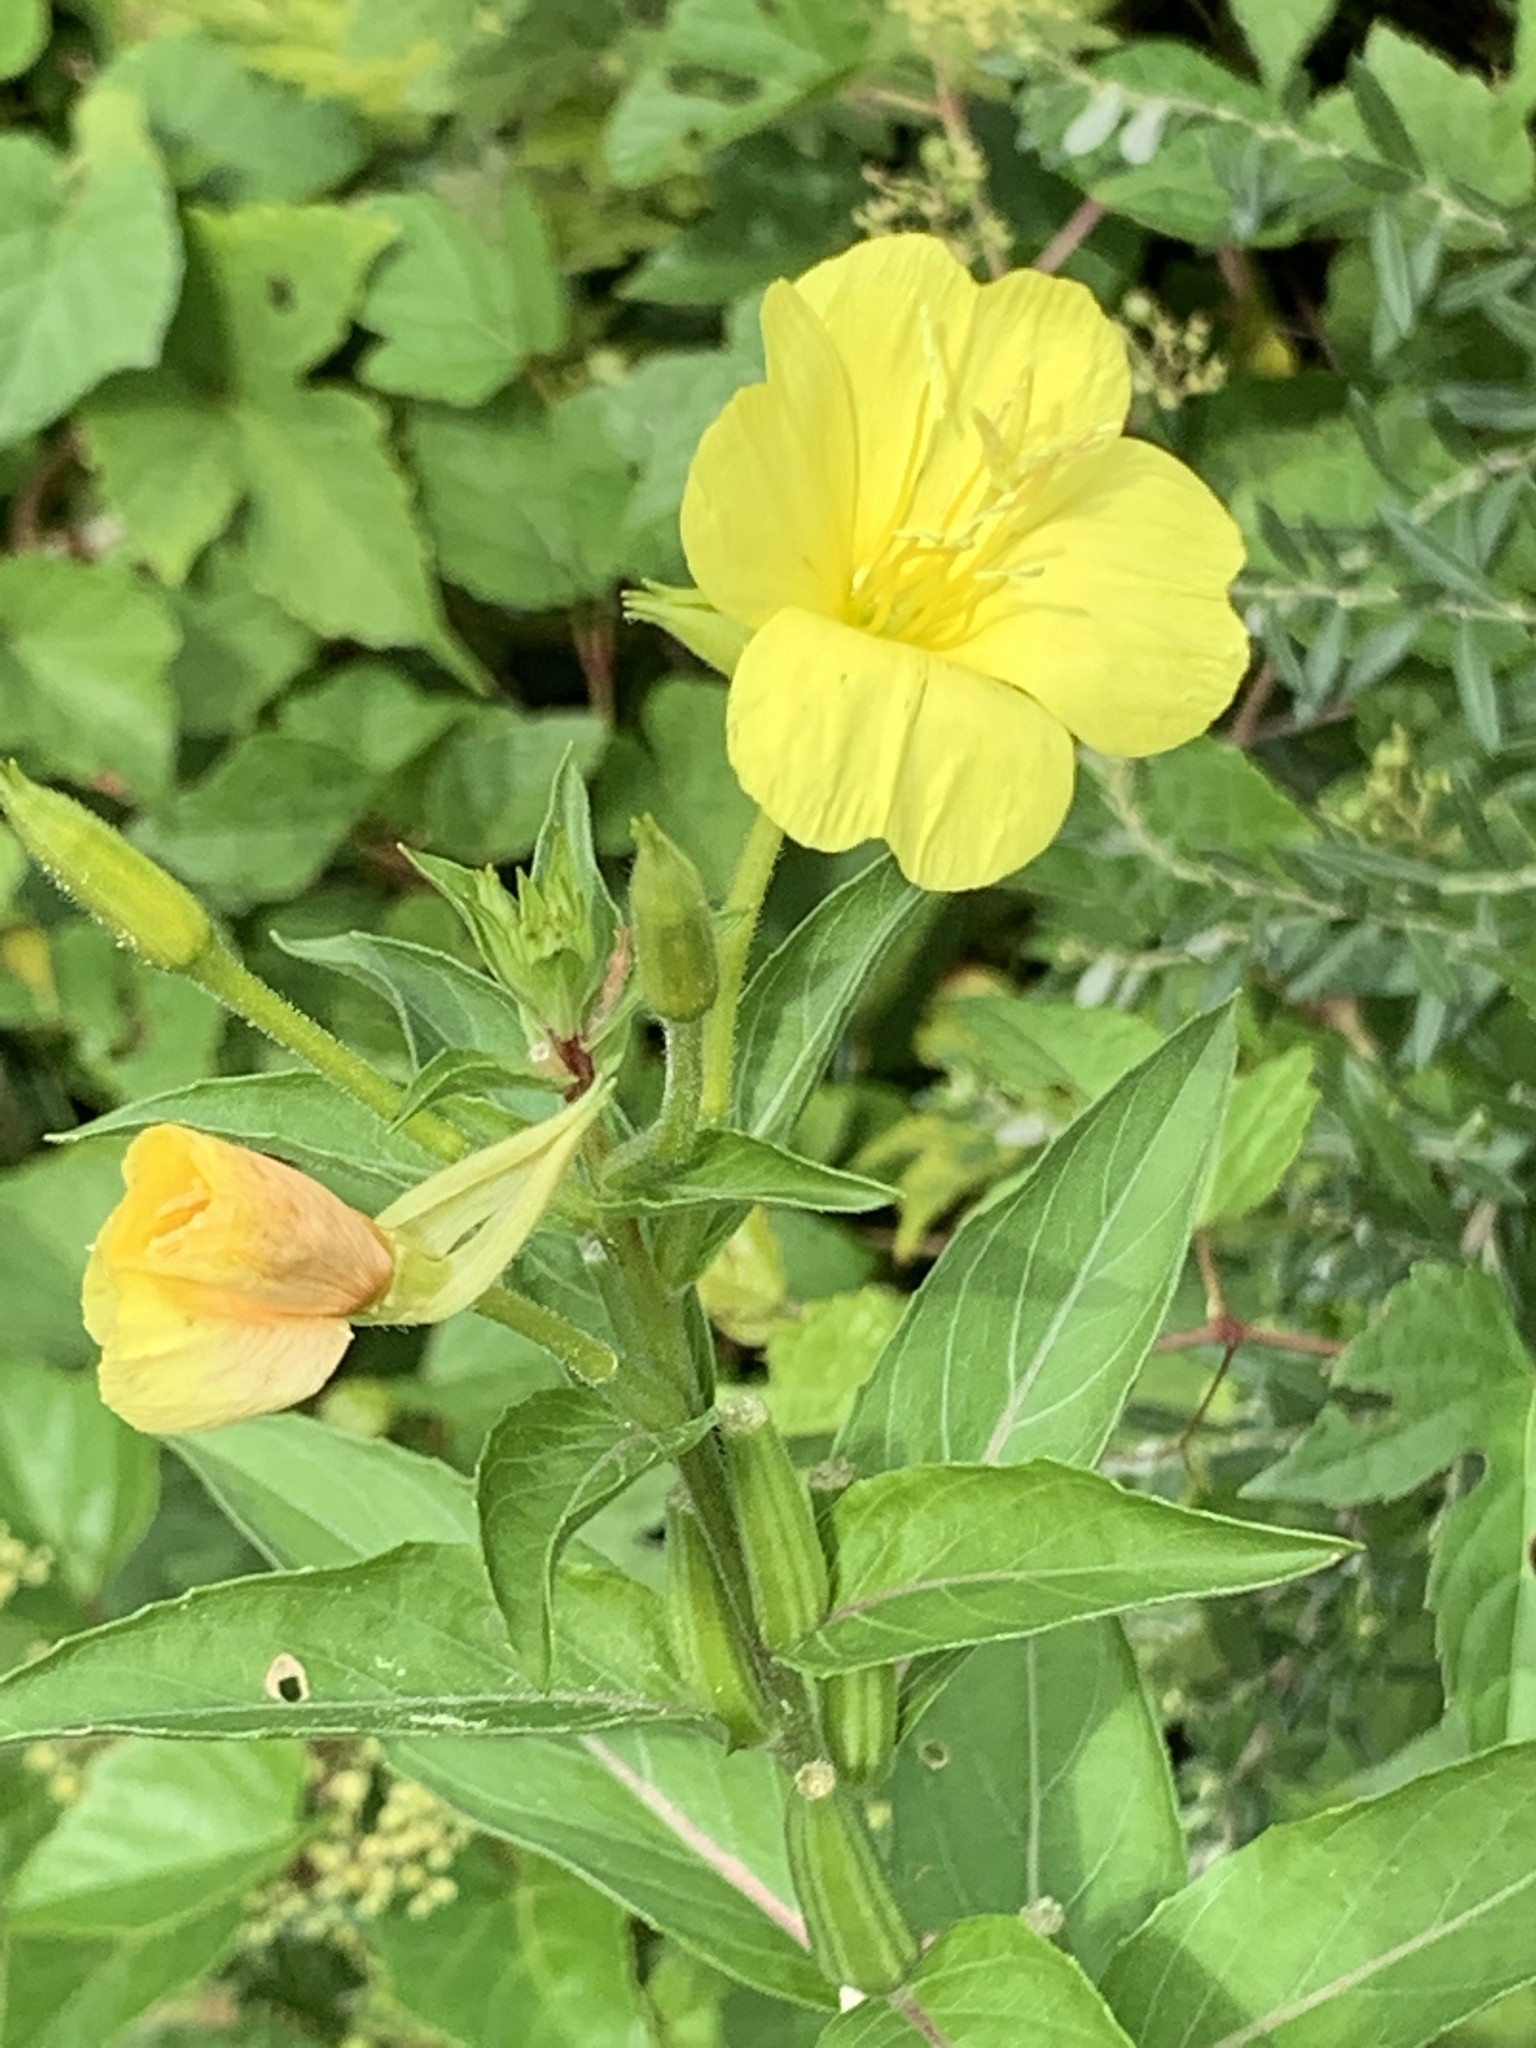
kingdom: Plantae
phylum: Tracheophyta
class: Magnoliopsida
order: Myrtales
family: Onagraceae
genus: Oenothera
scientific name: Oenothera biennis
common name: Common evening-primrose
